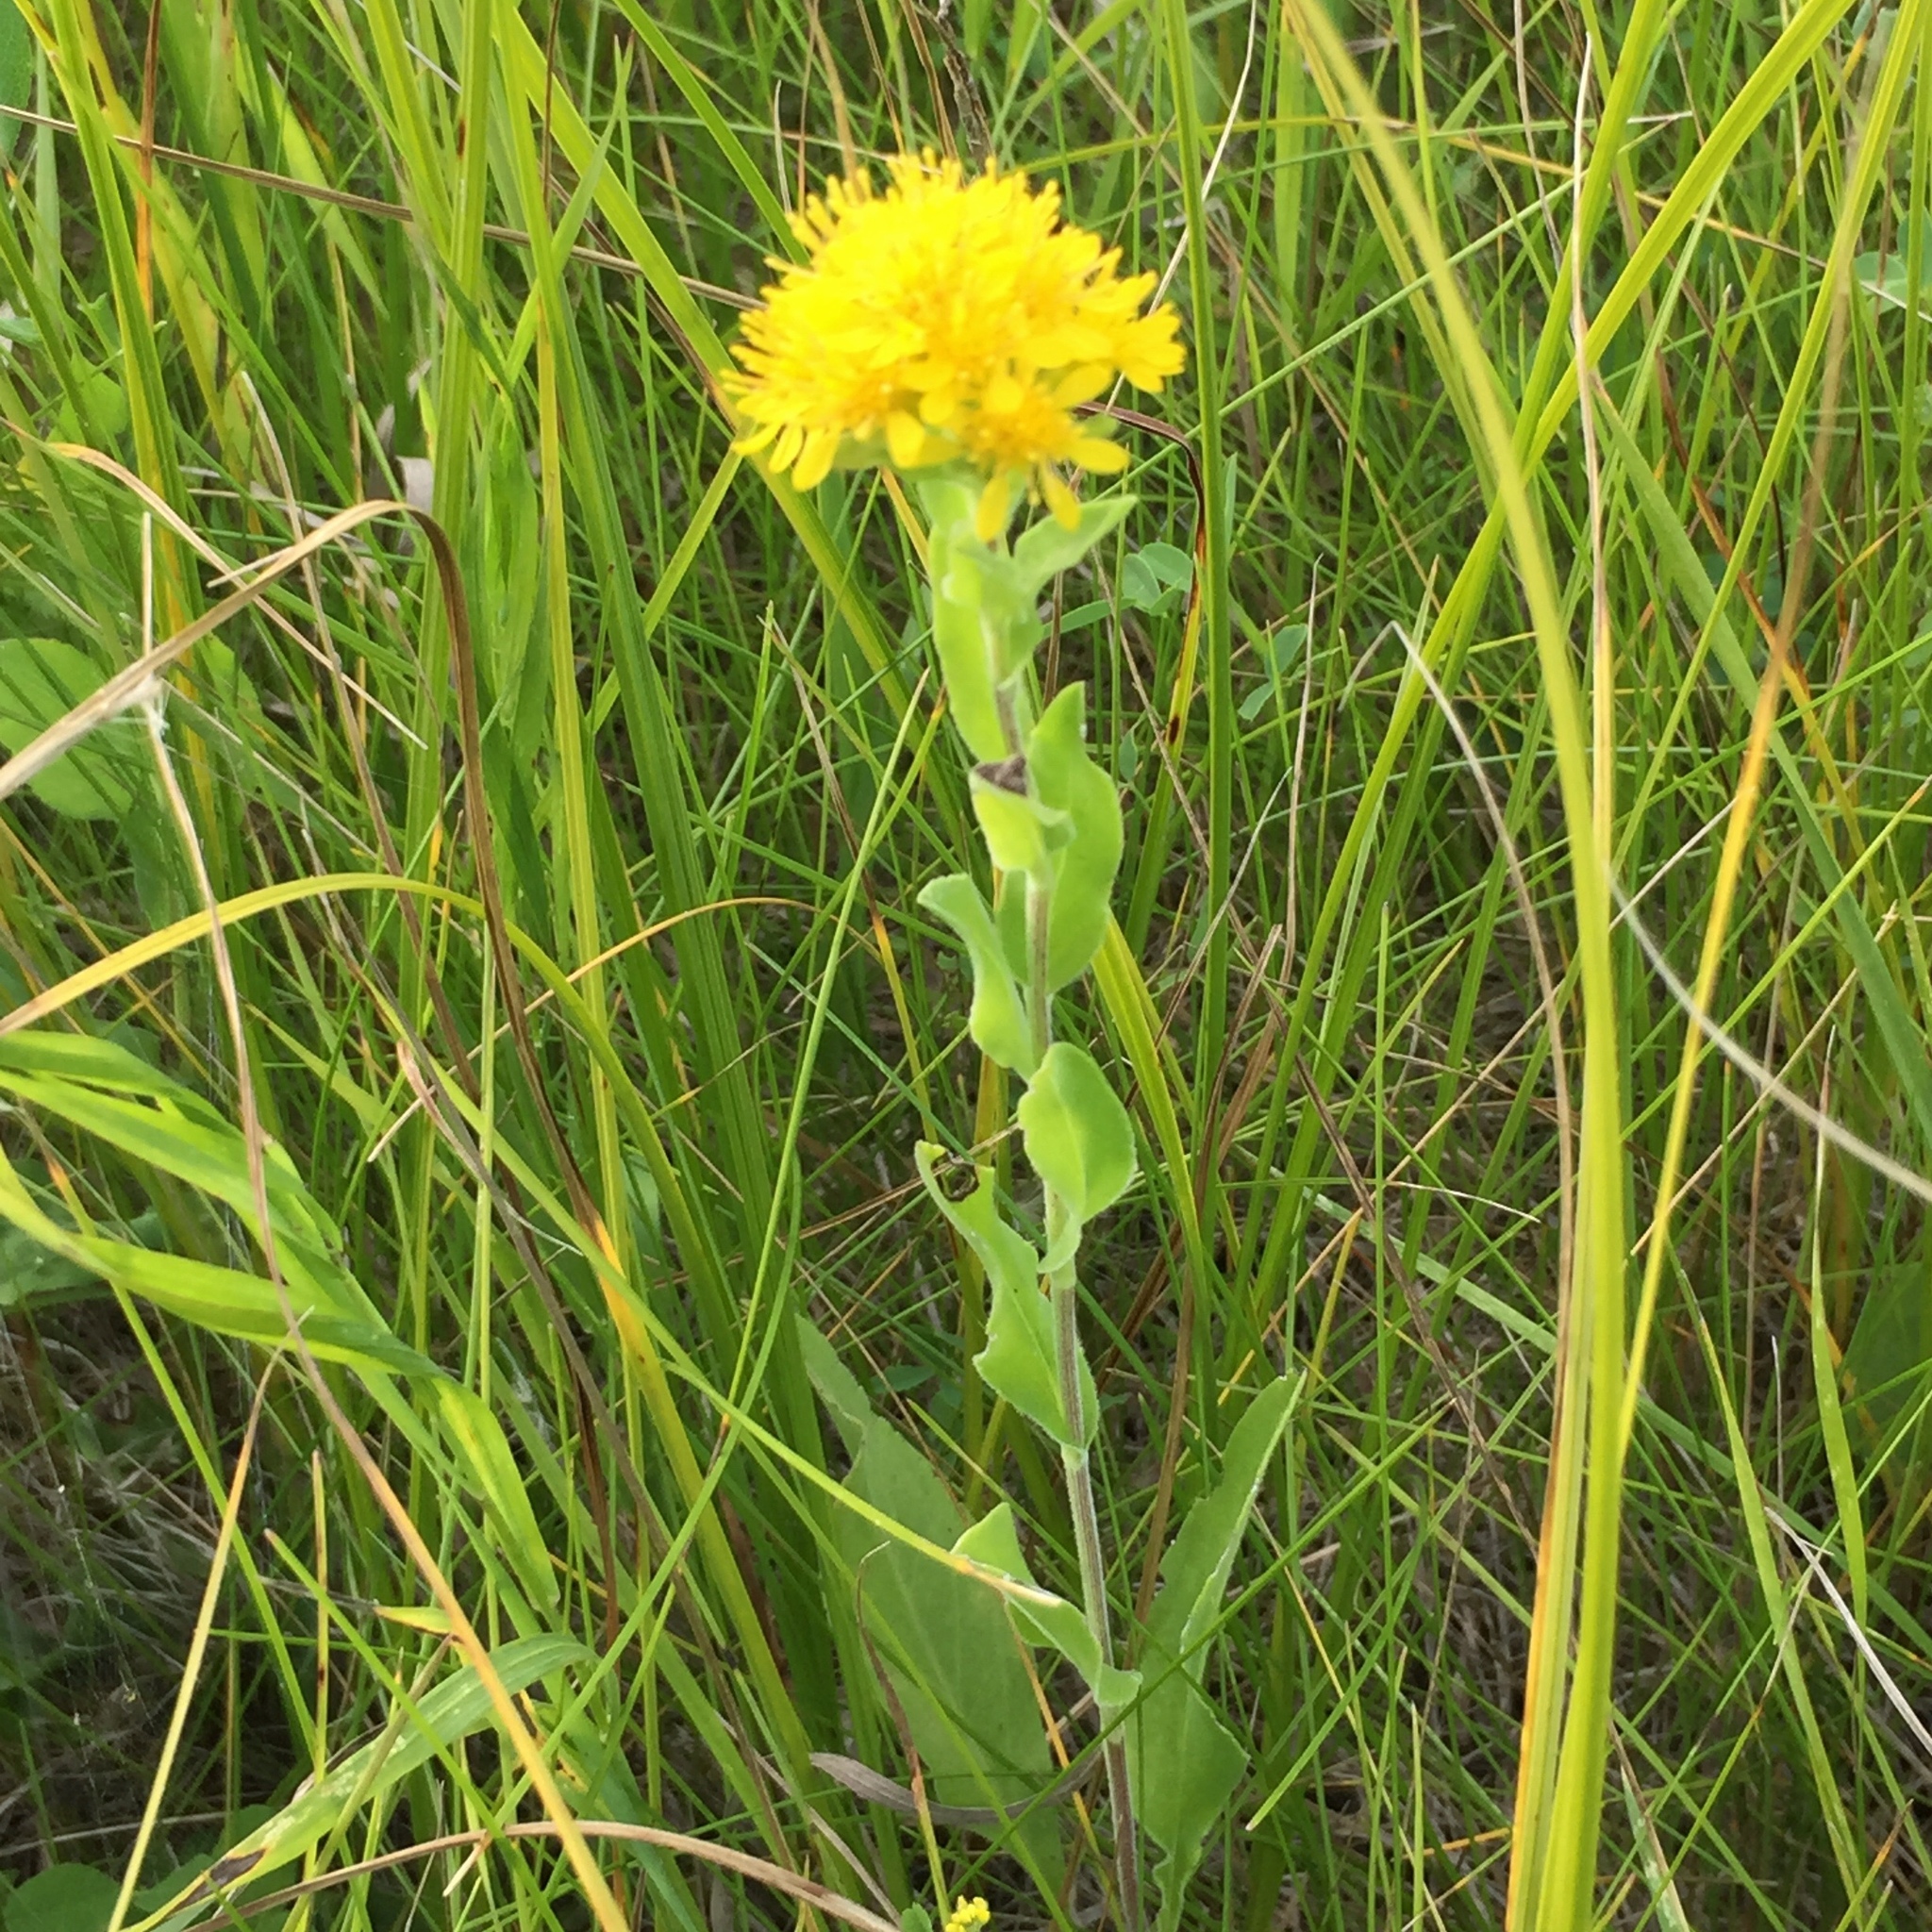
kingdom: Plantae
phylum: Tracheophyta
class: Magnoliopsida
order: Asterales
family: Asteraceae
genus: Solidago
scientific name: Solidago rigida
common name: Rigid goldenrod
